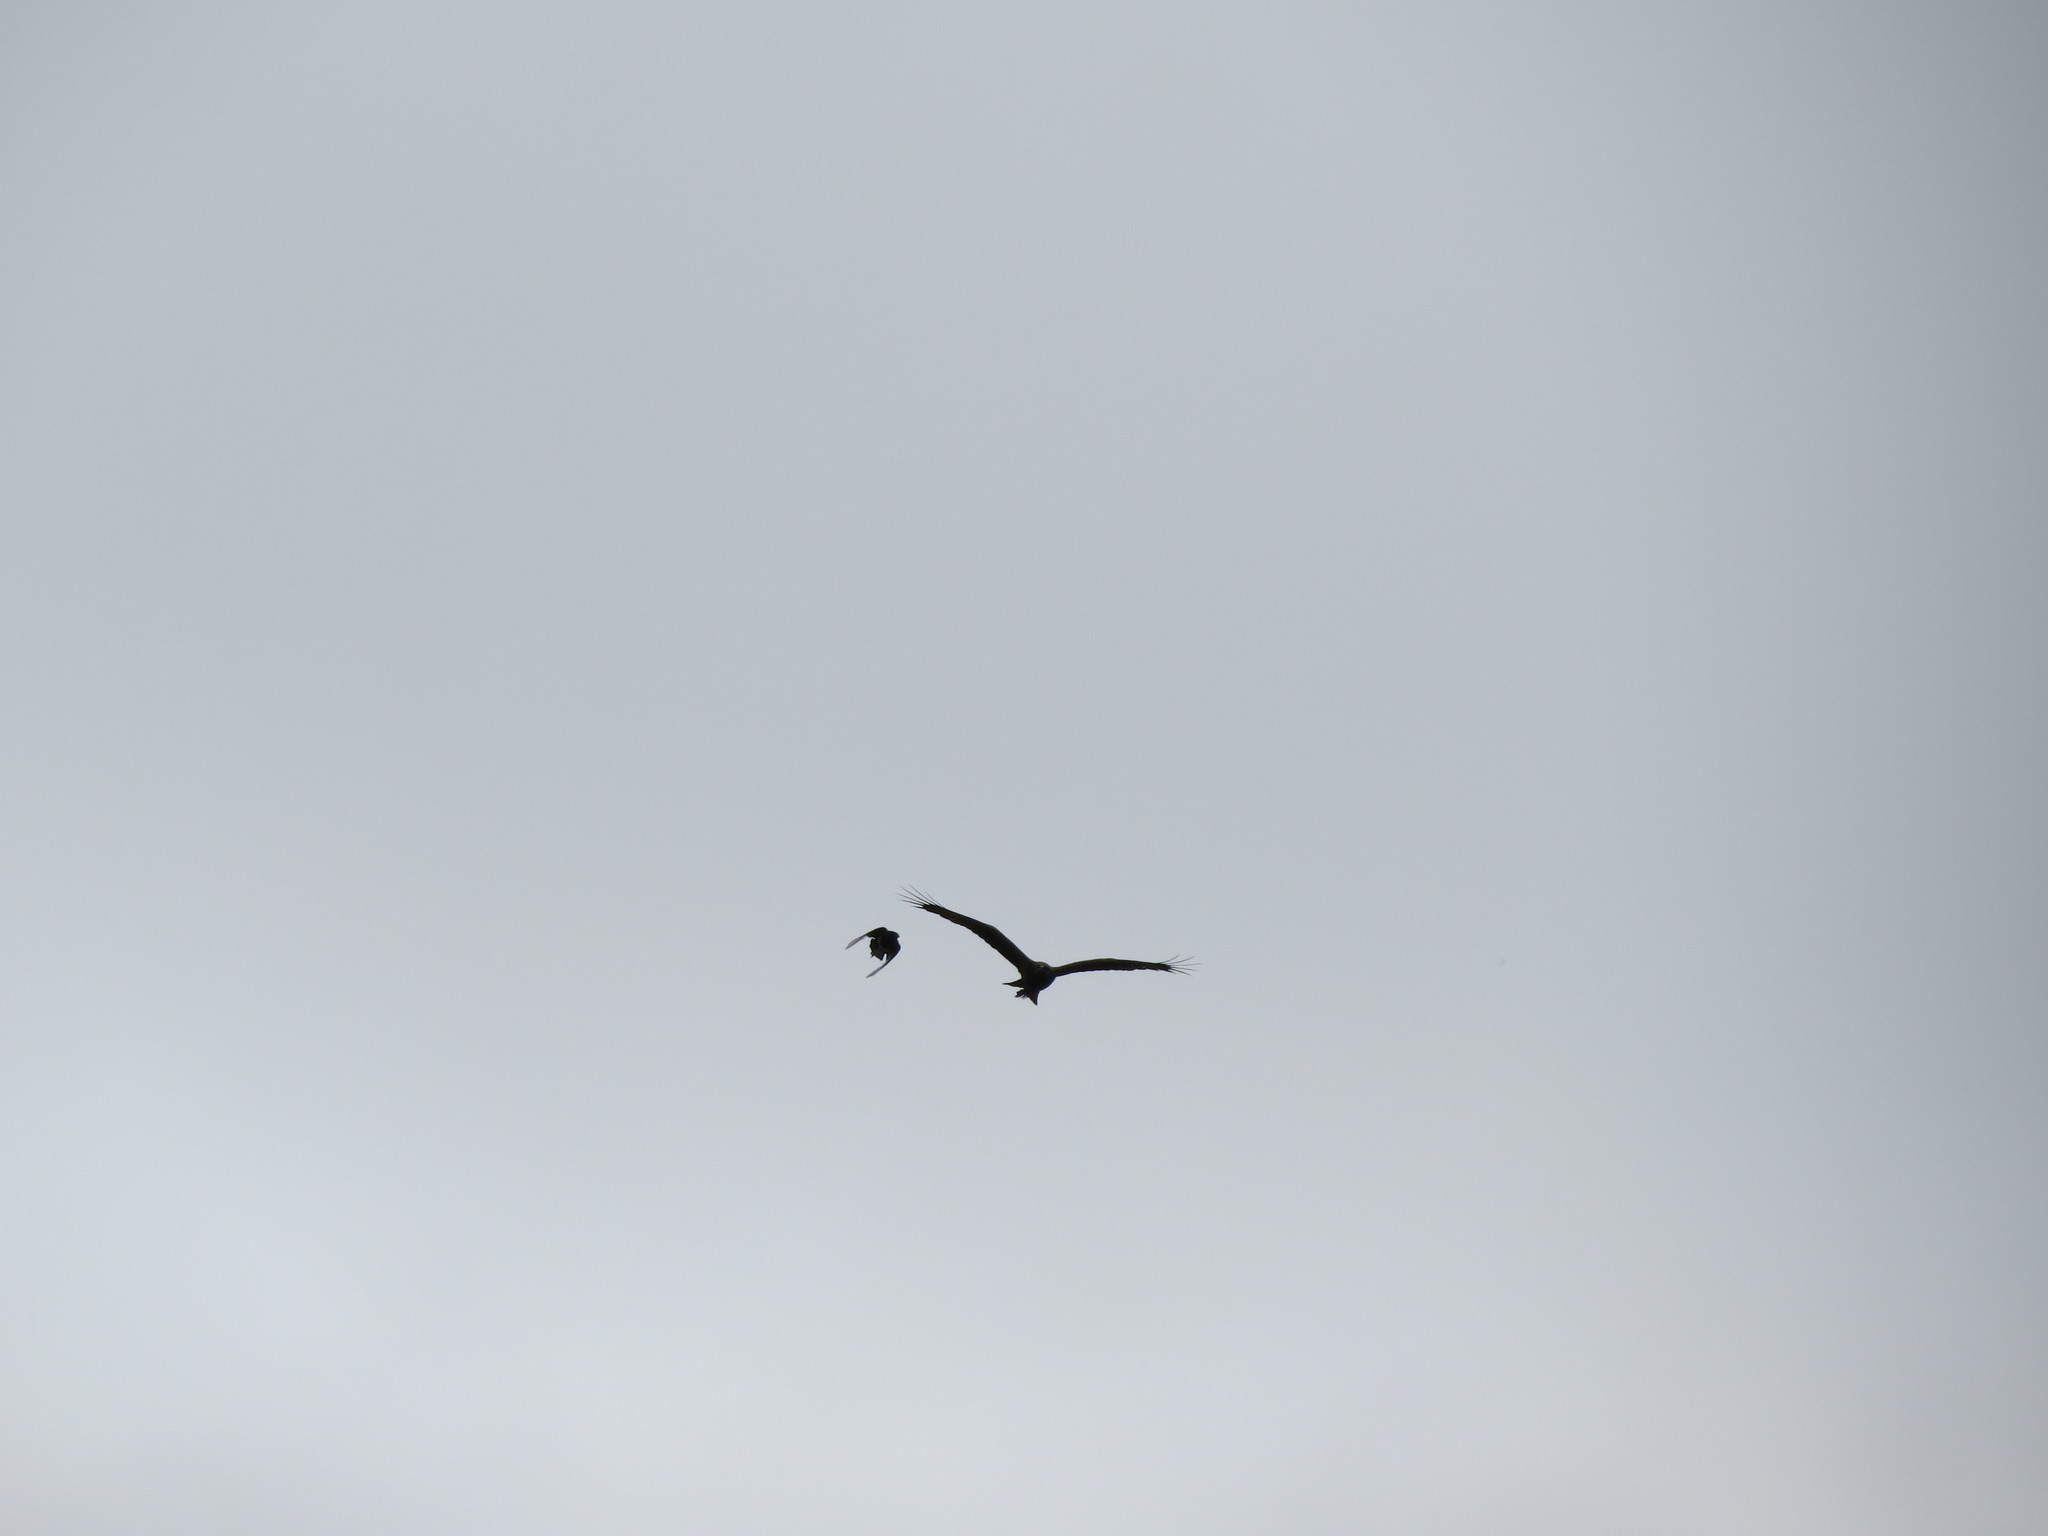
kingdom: Animalia
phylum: Chordata
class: Aves
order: Accipitriformes
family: Accipitridae
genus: Milvus
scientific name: Milvus migrans
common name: Black kite
